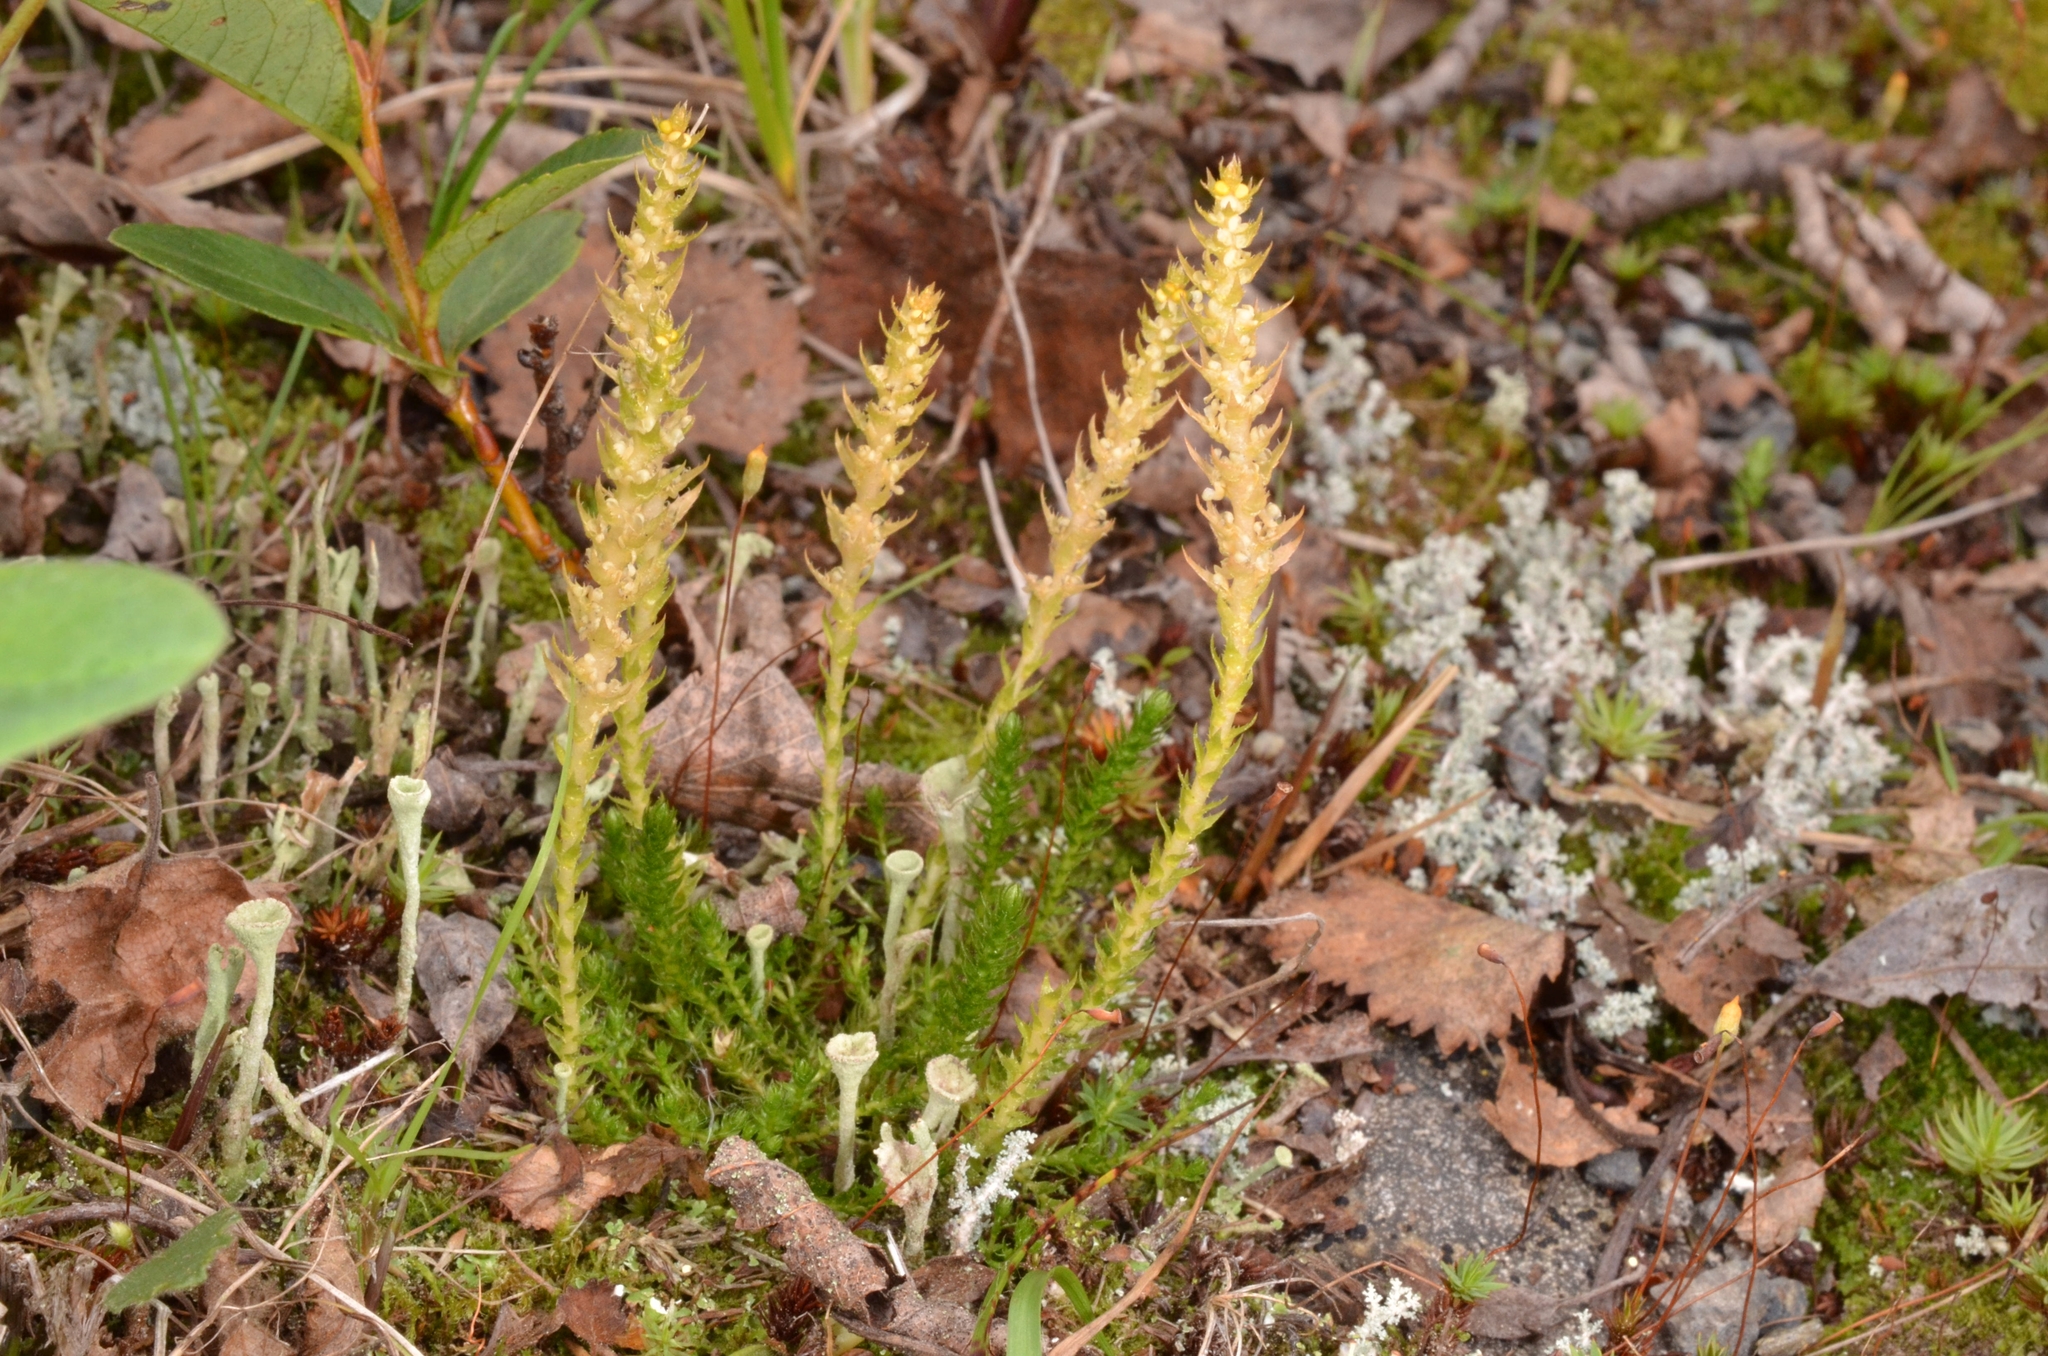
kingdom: Plantae
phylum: Tracheophyta
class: Lycopodiopsida
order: Selaginellales
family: Selaginellaceae
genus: Selaginella
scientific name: Selaginella selaginoides
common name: Prickly mountain-moss
